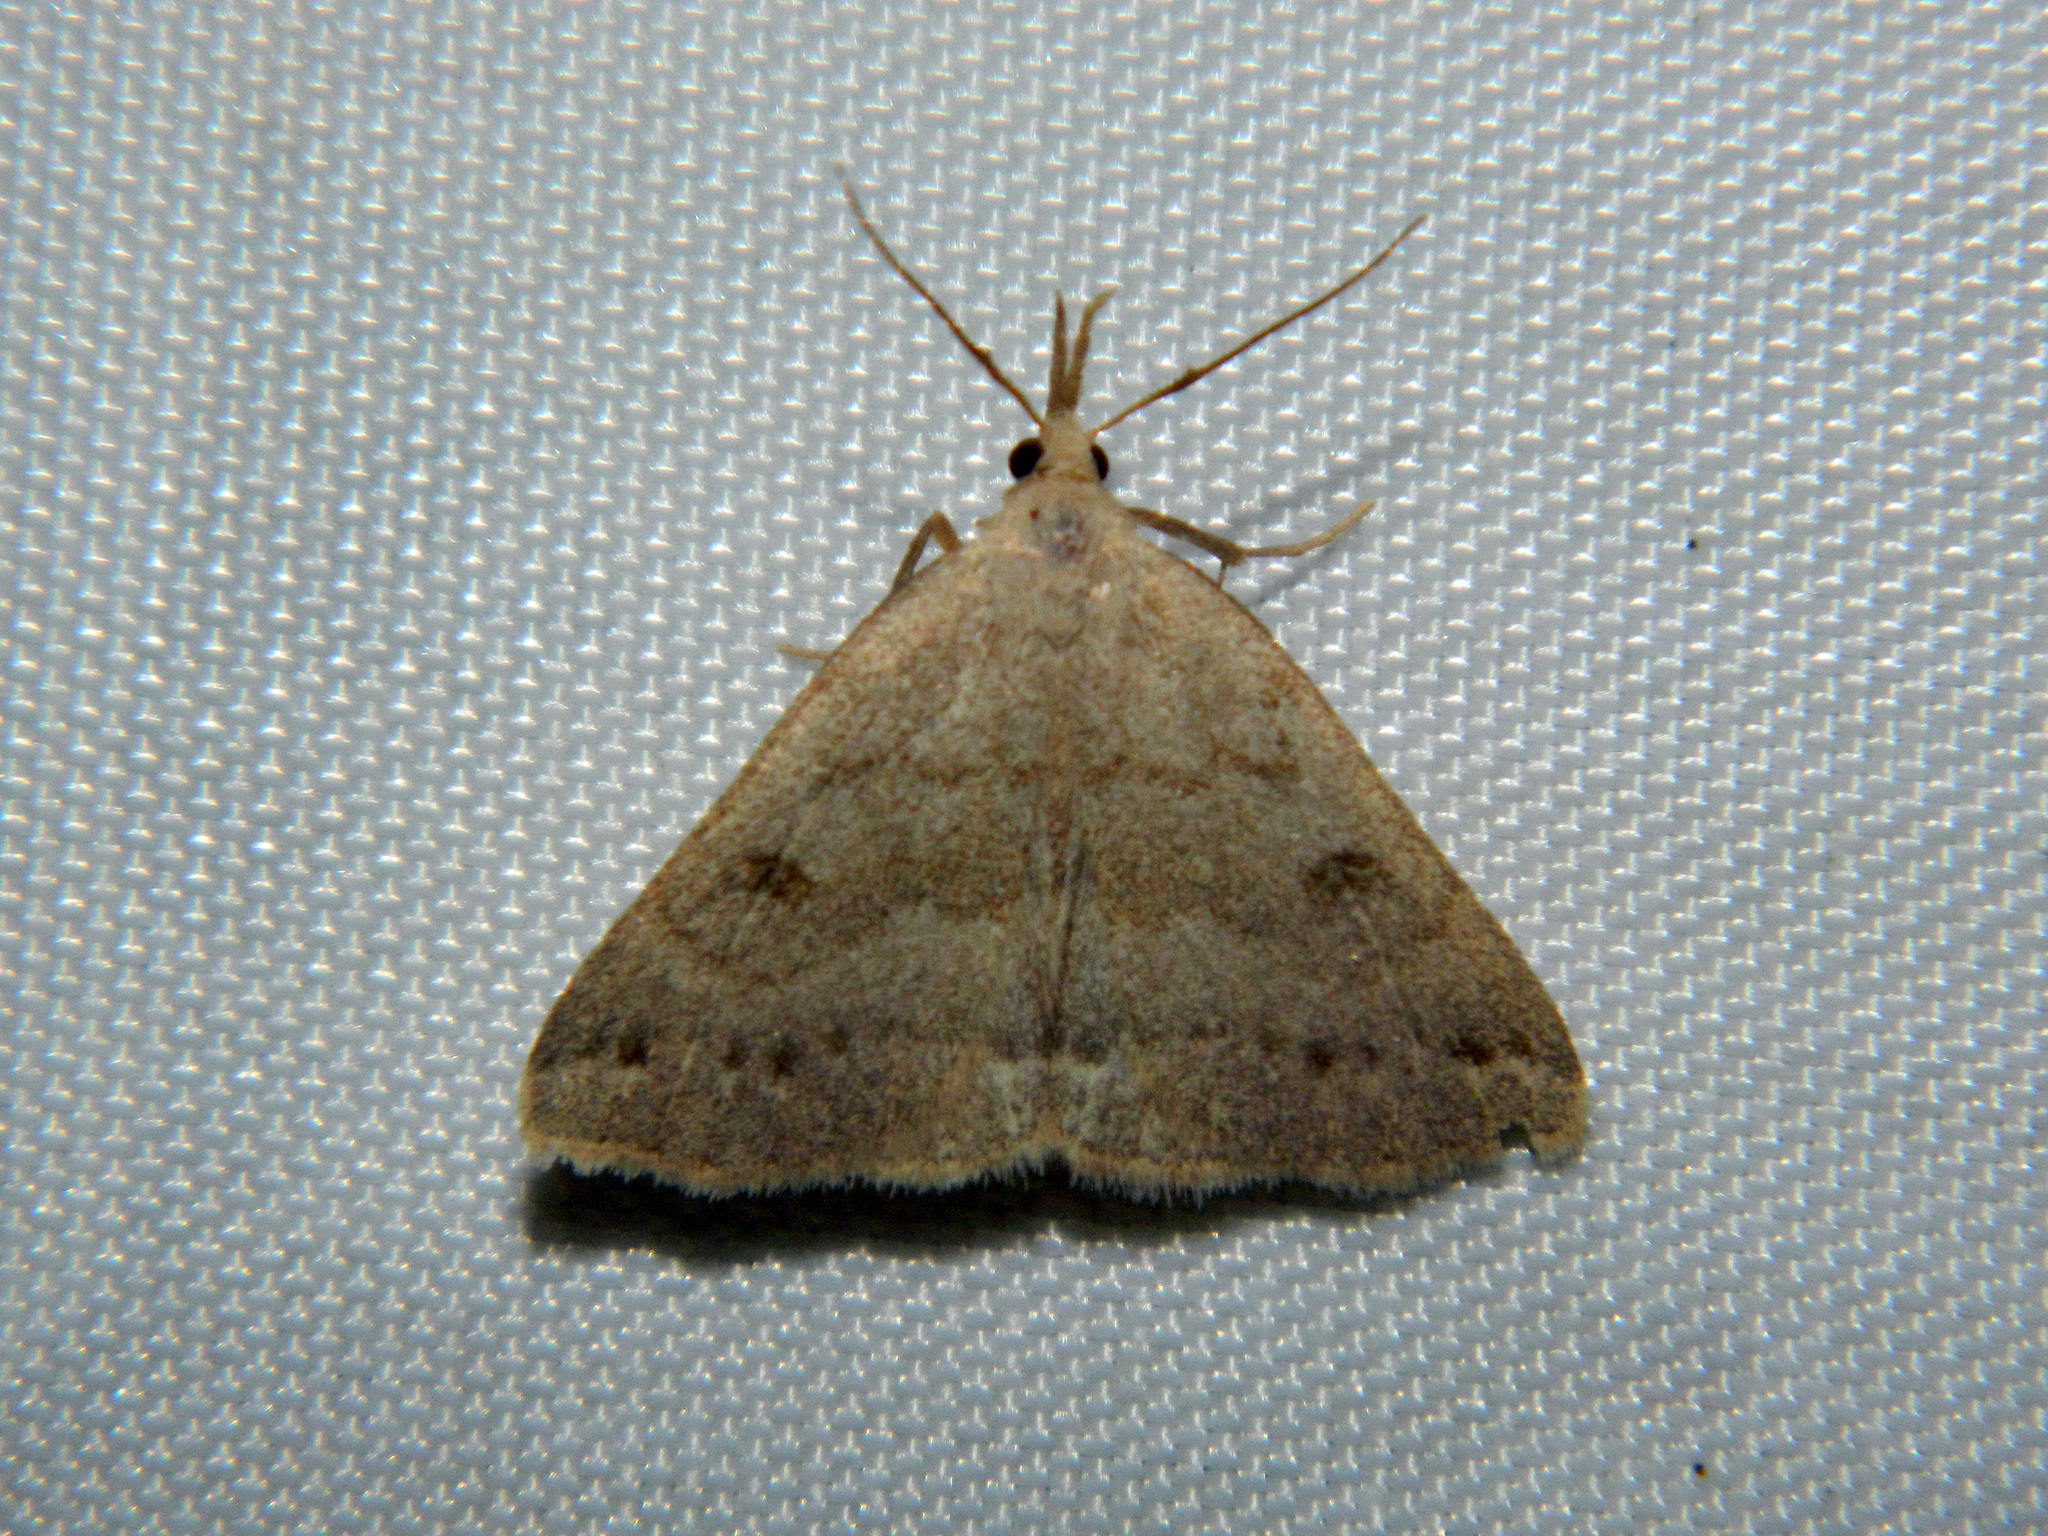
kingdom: Animalia
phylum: Arthropoda
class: Insecta
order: Lepidoptera
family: Erebidae
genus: Macrochilo
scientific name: Macrochilo morbidalis
